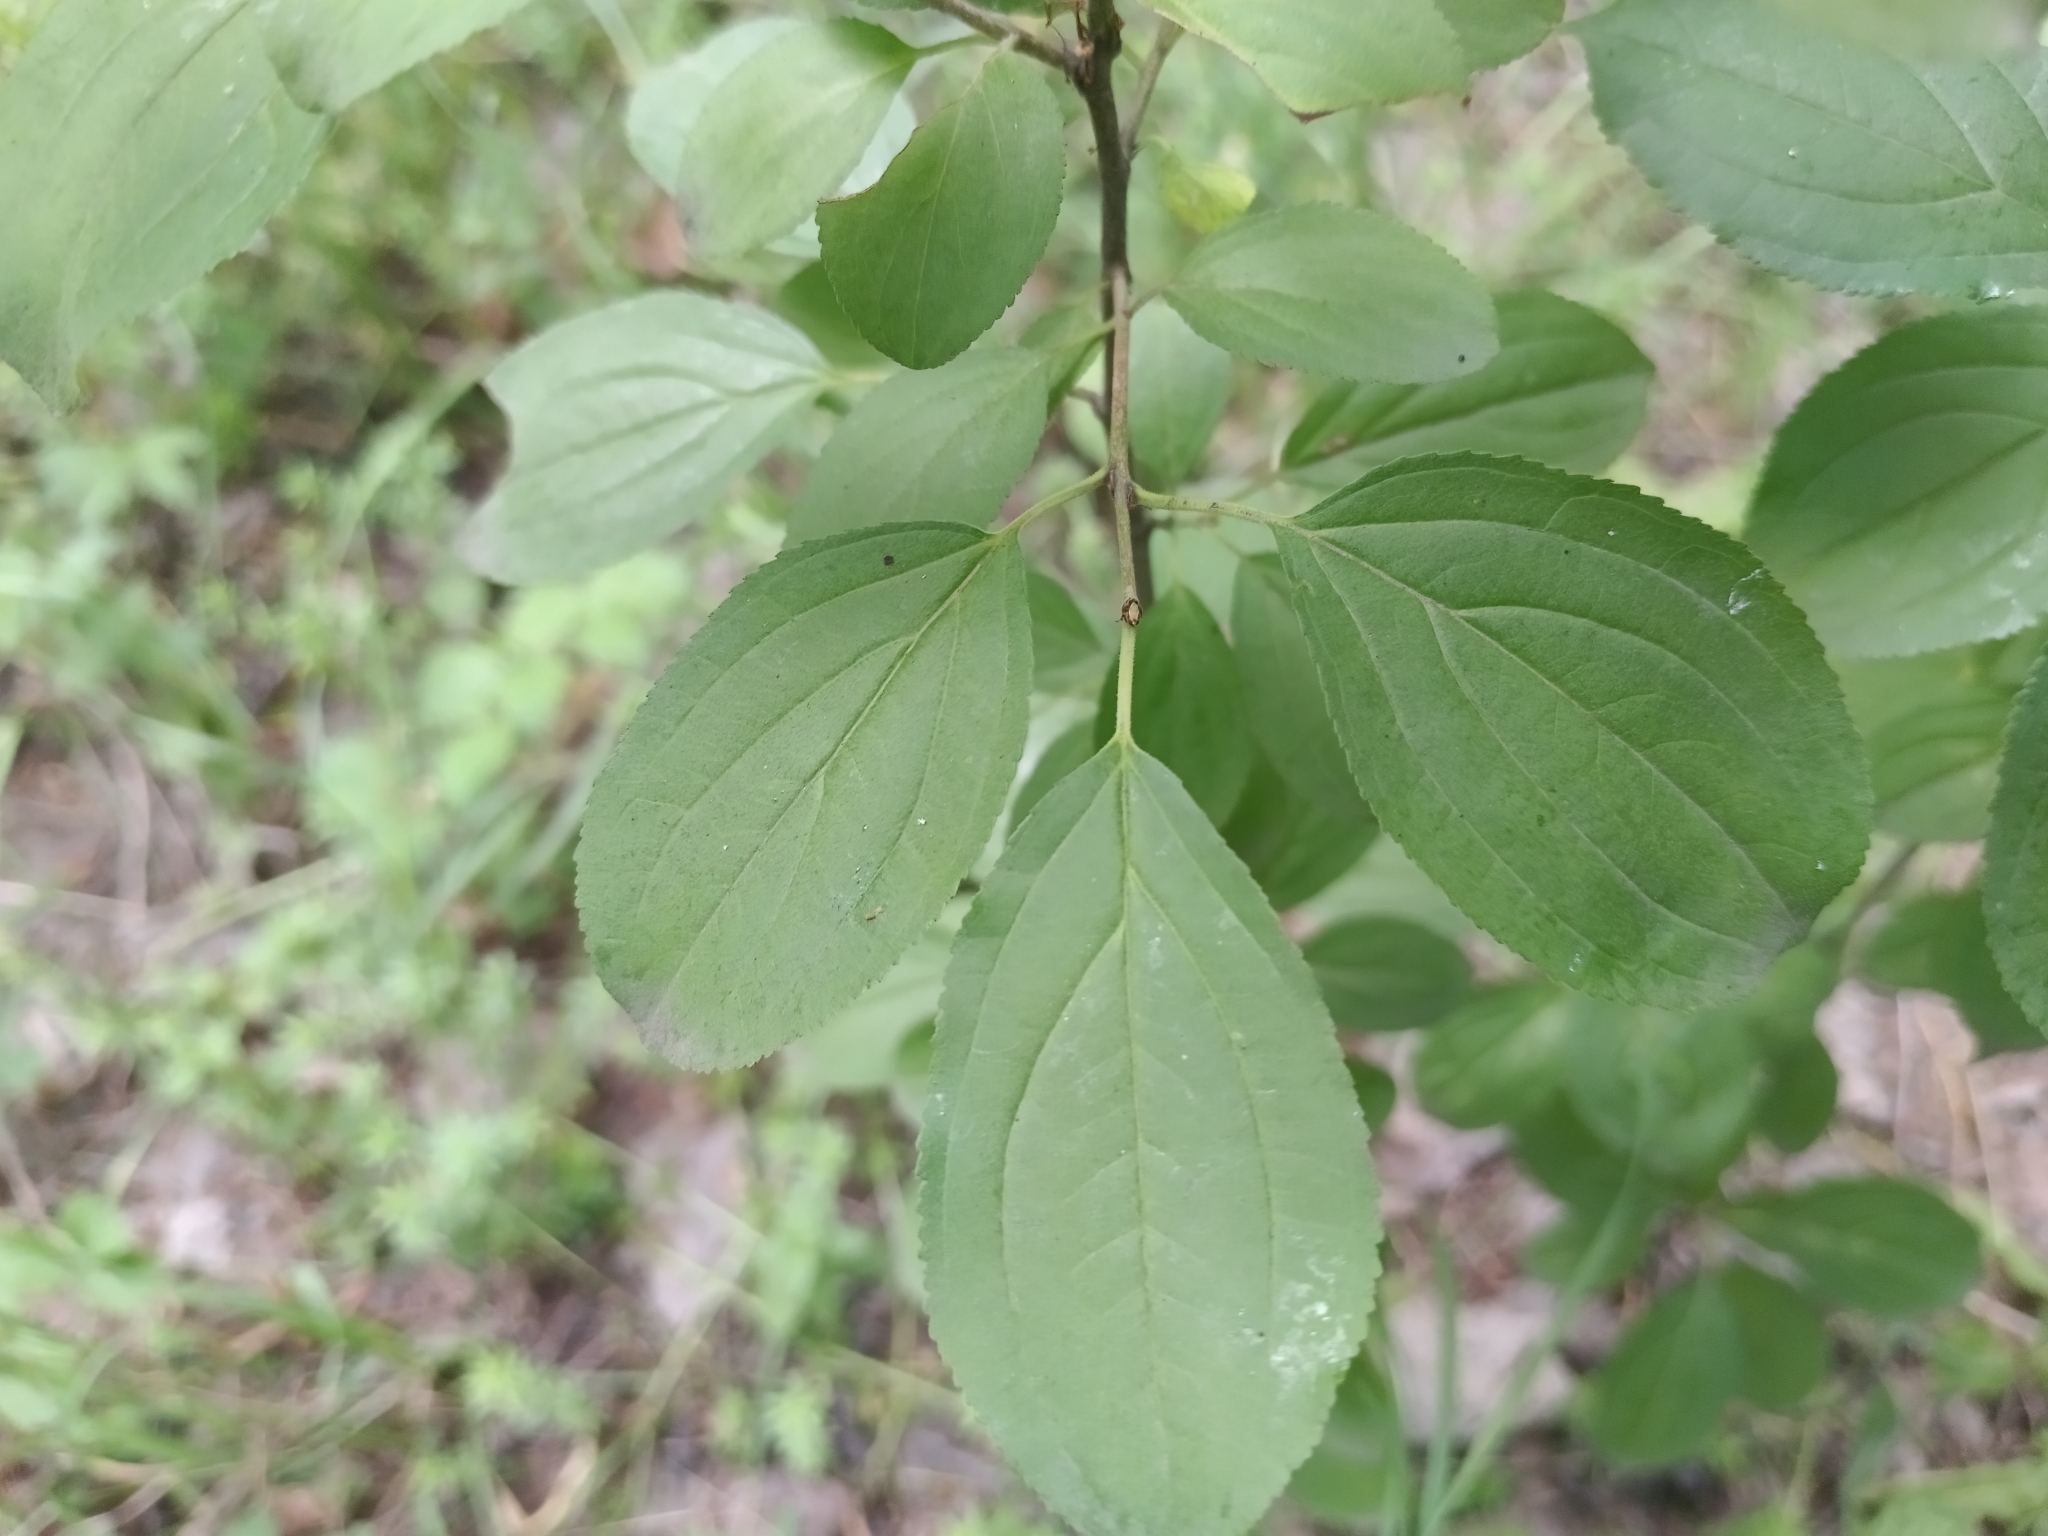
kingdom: Plantae
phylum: Tracheophyta
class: Magnoliopsida
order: Rosales
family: Rhamnaceae
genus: Rhamnus
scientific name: Rhamnus cathartica
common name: Common buckthorn
